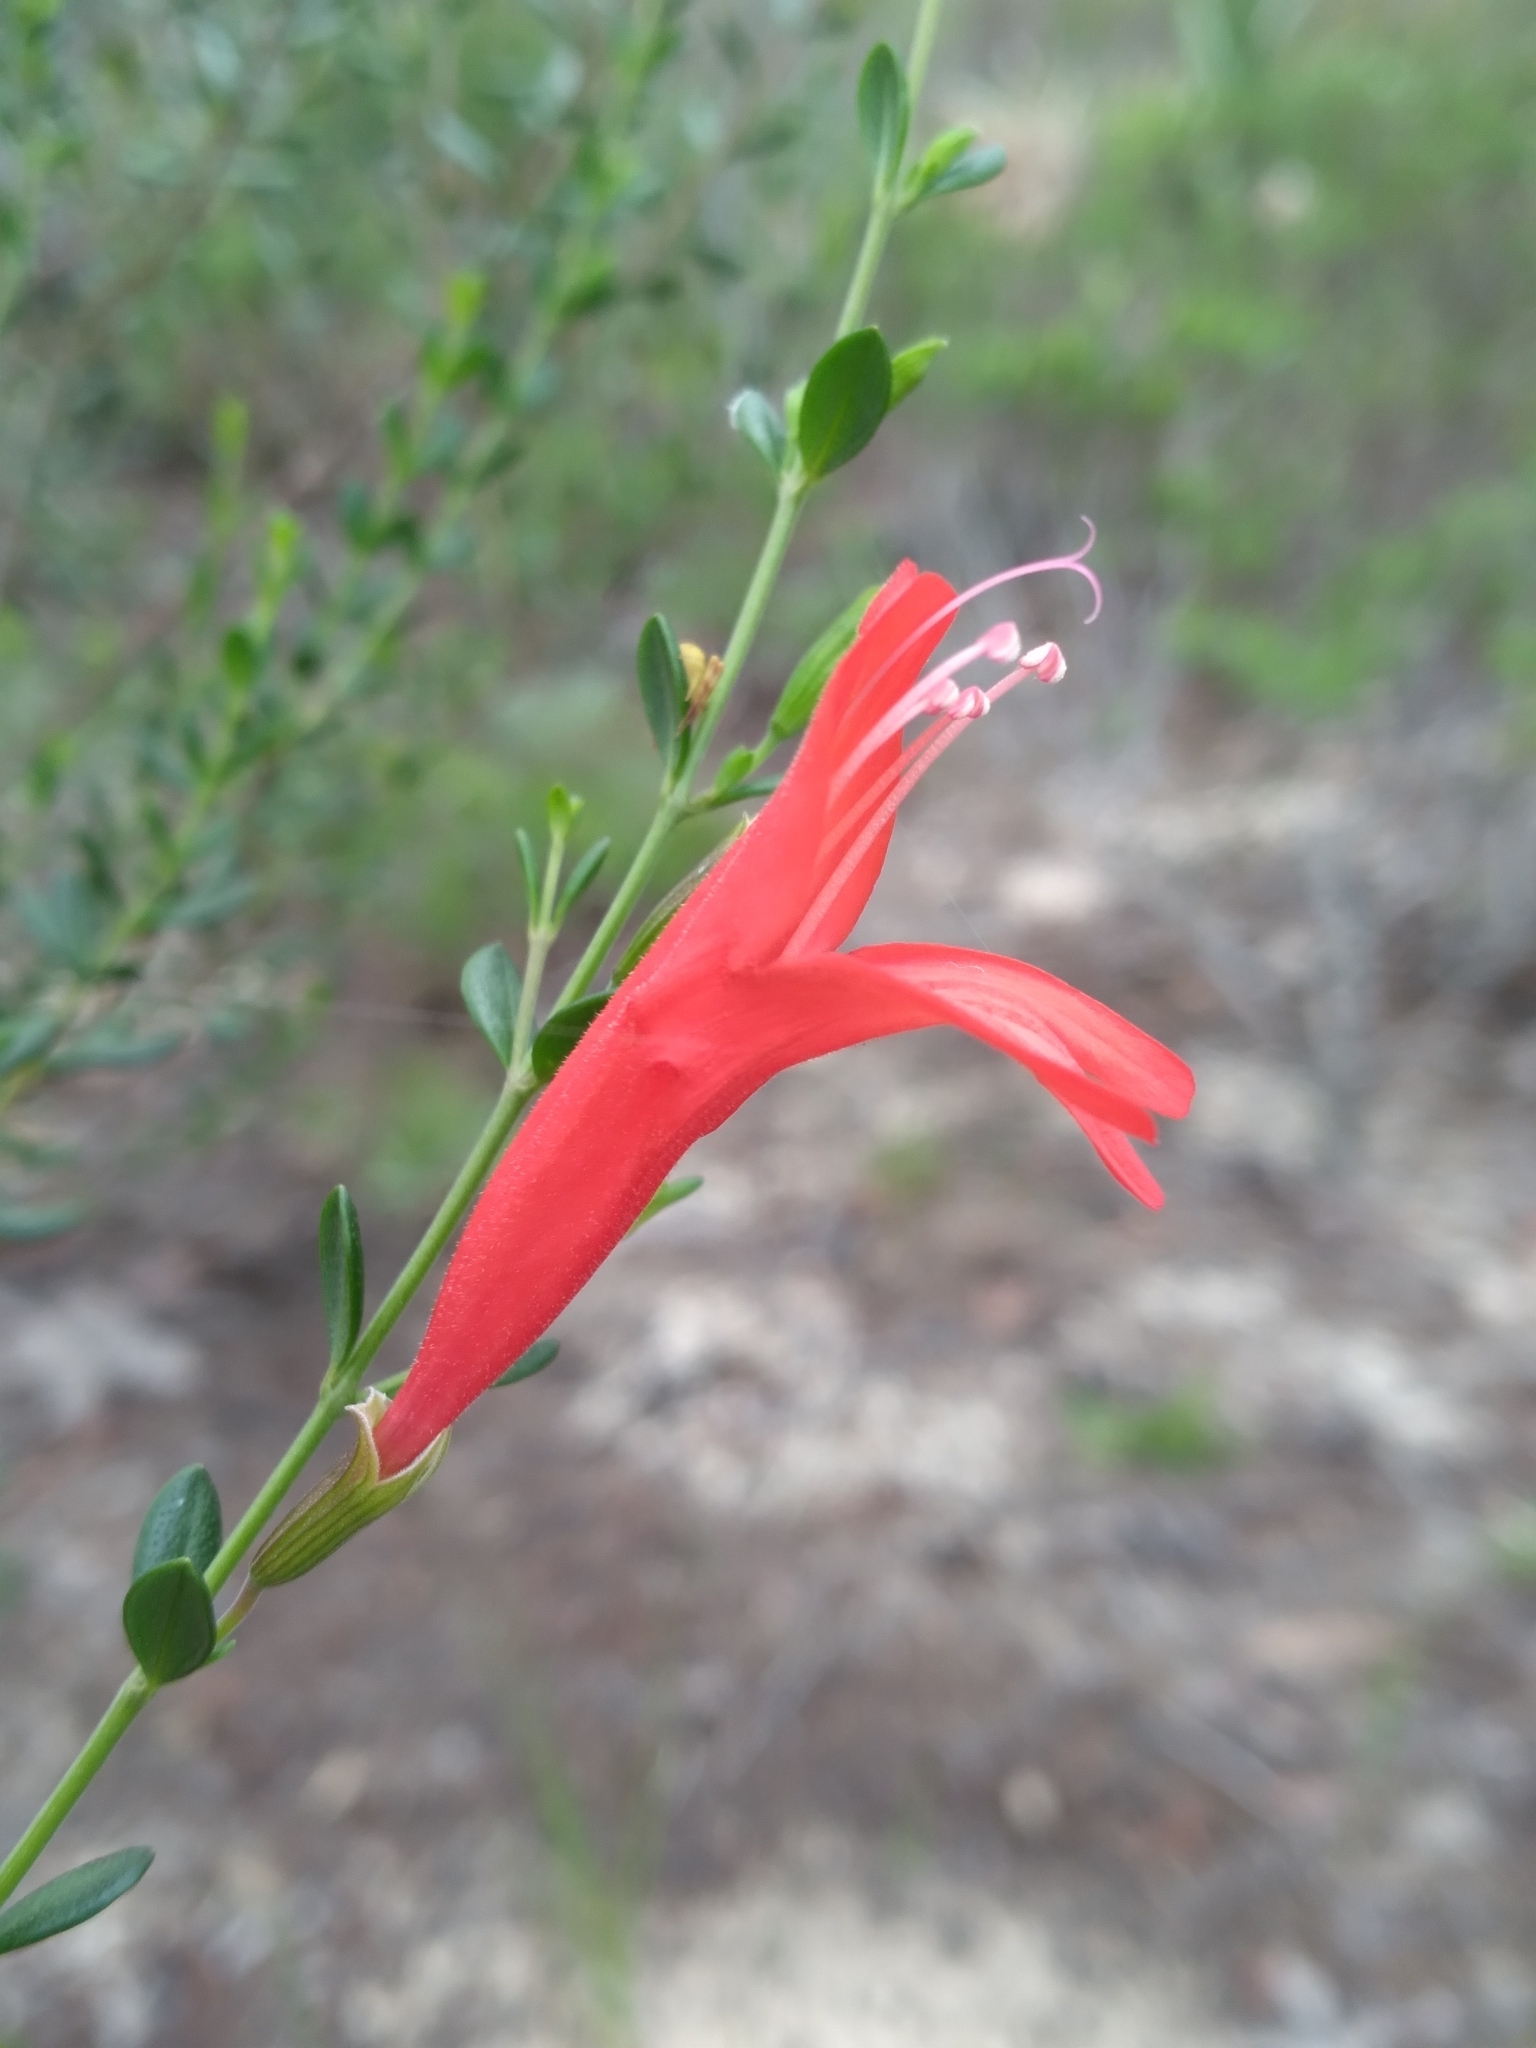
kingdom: Plantae
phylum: Tracheophyta
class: Magnoliopsida
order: Lamiales
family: Lamiaceae
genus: Clinopodium
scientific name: Clinopodium coccineum
